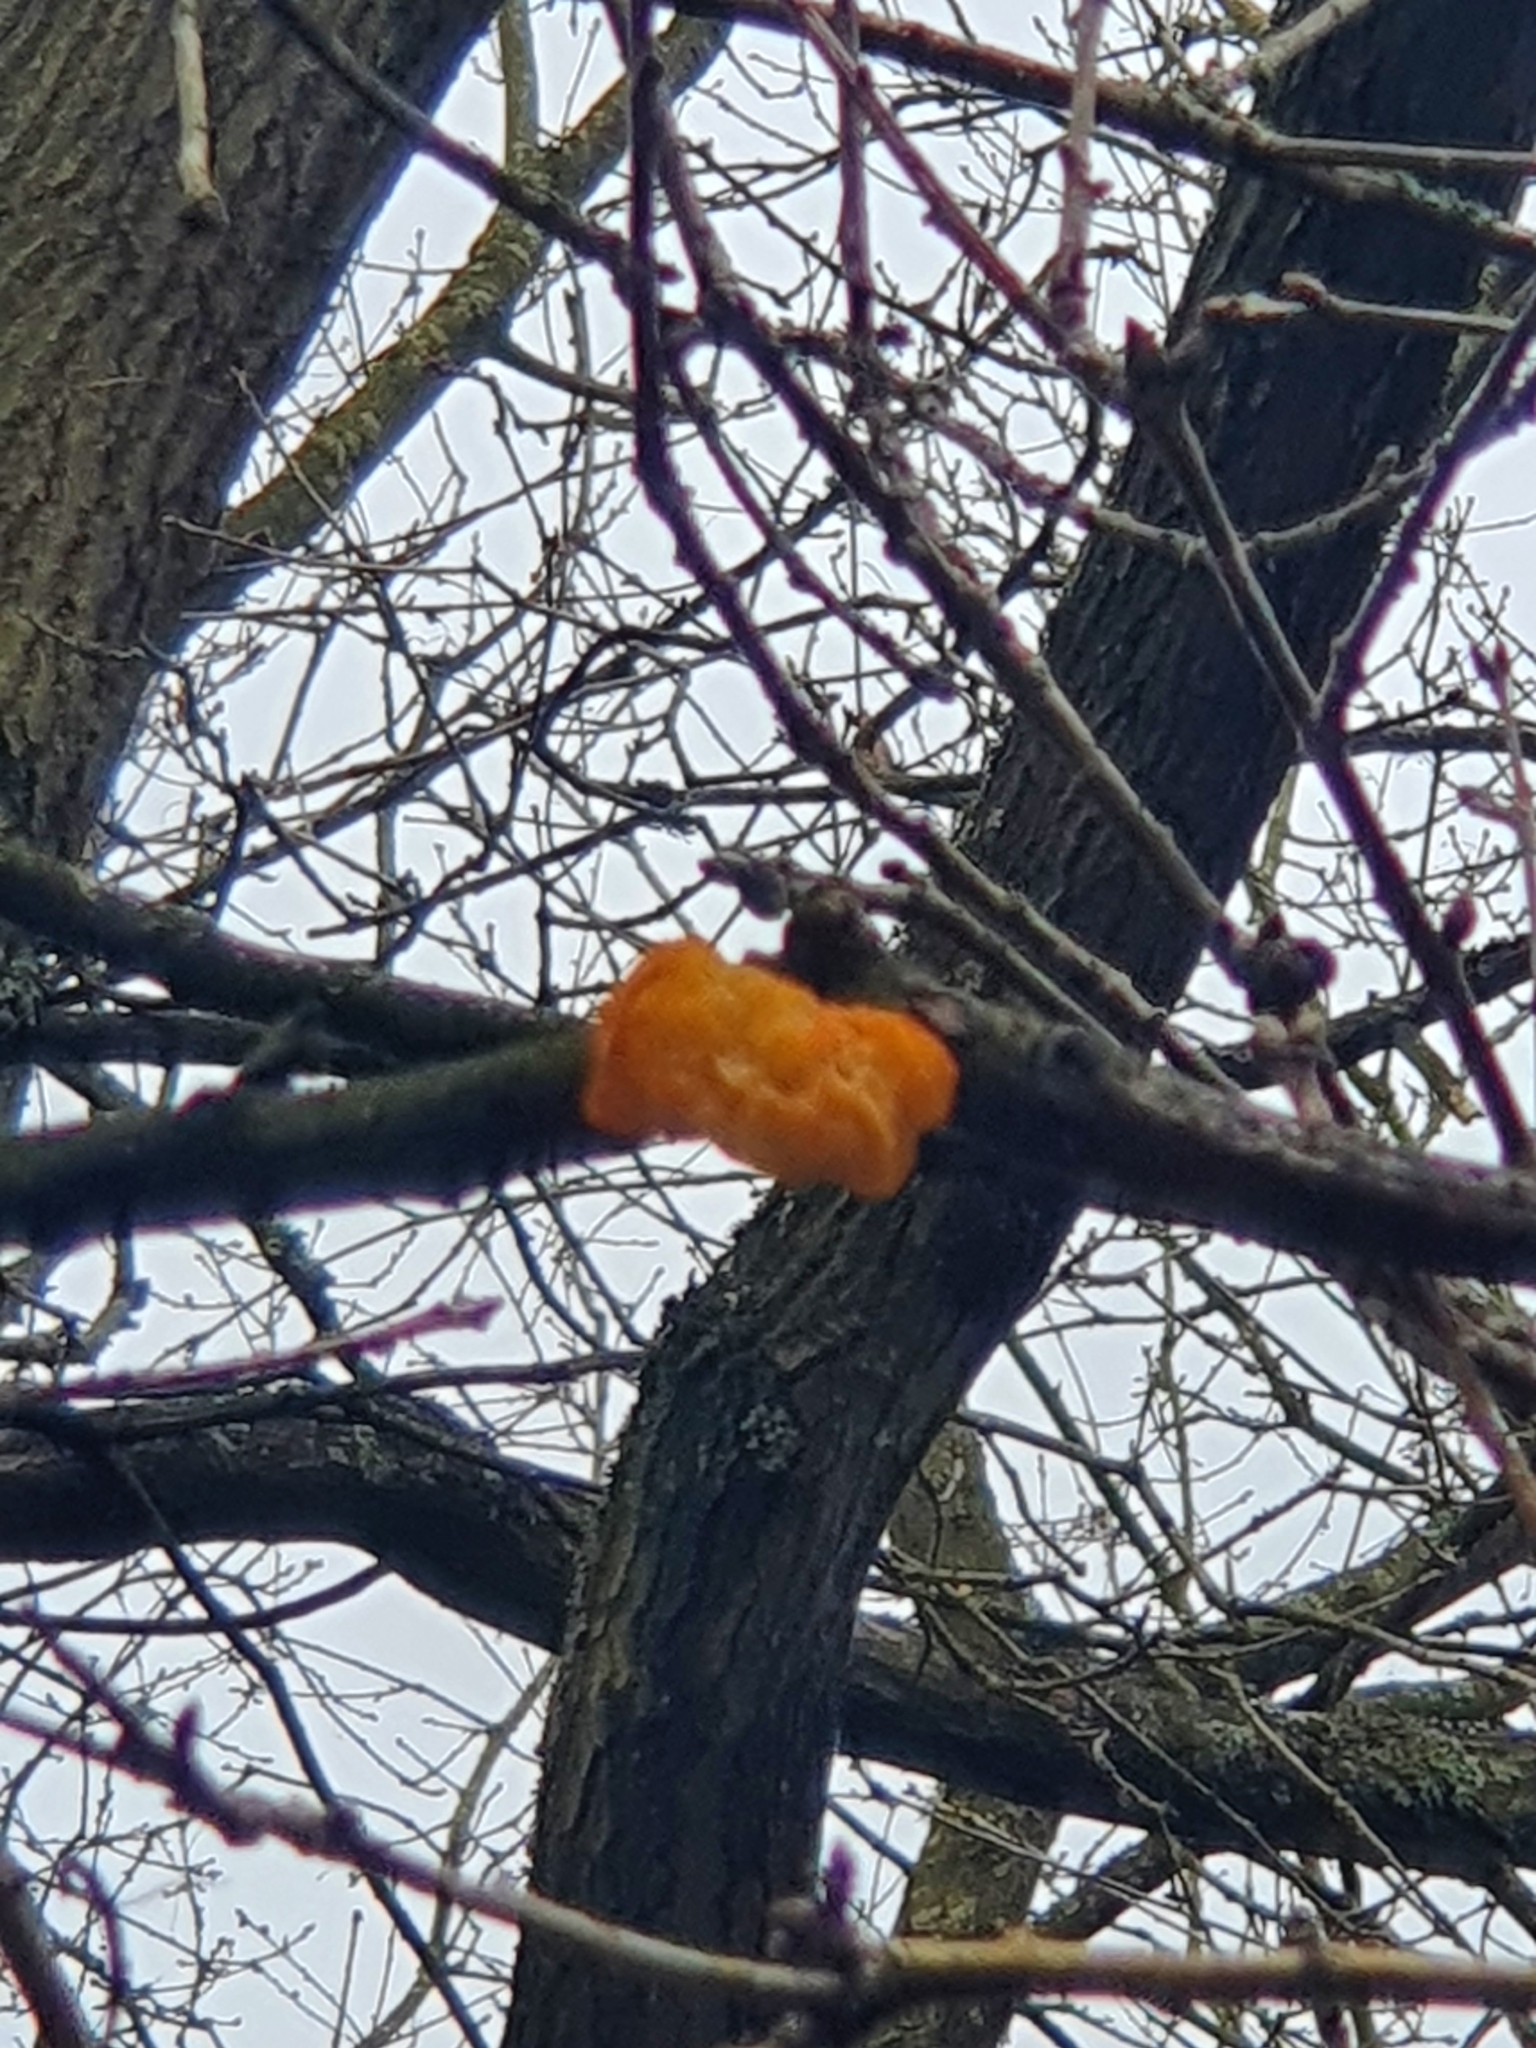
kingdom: Fungi
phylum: Basidiomycota
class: Tremellomycetes
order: Tremellales
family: Tremellaceae
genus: Tremella
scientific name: Tremella mesenterica
